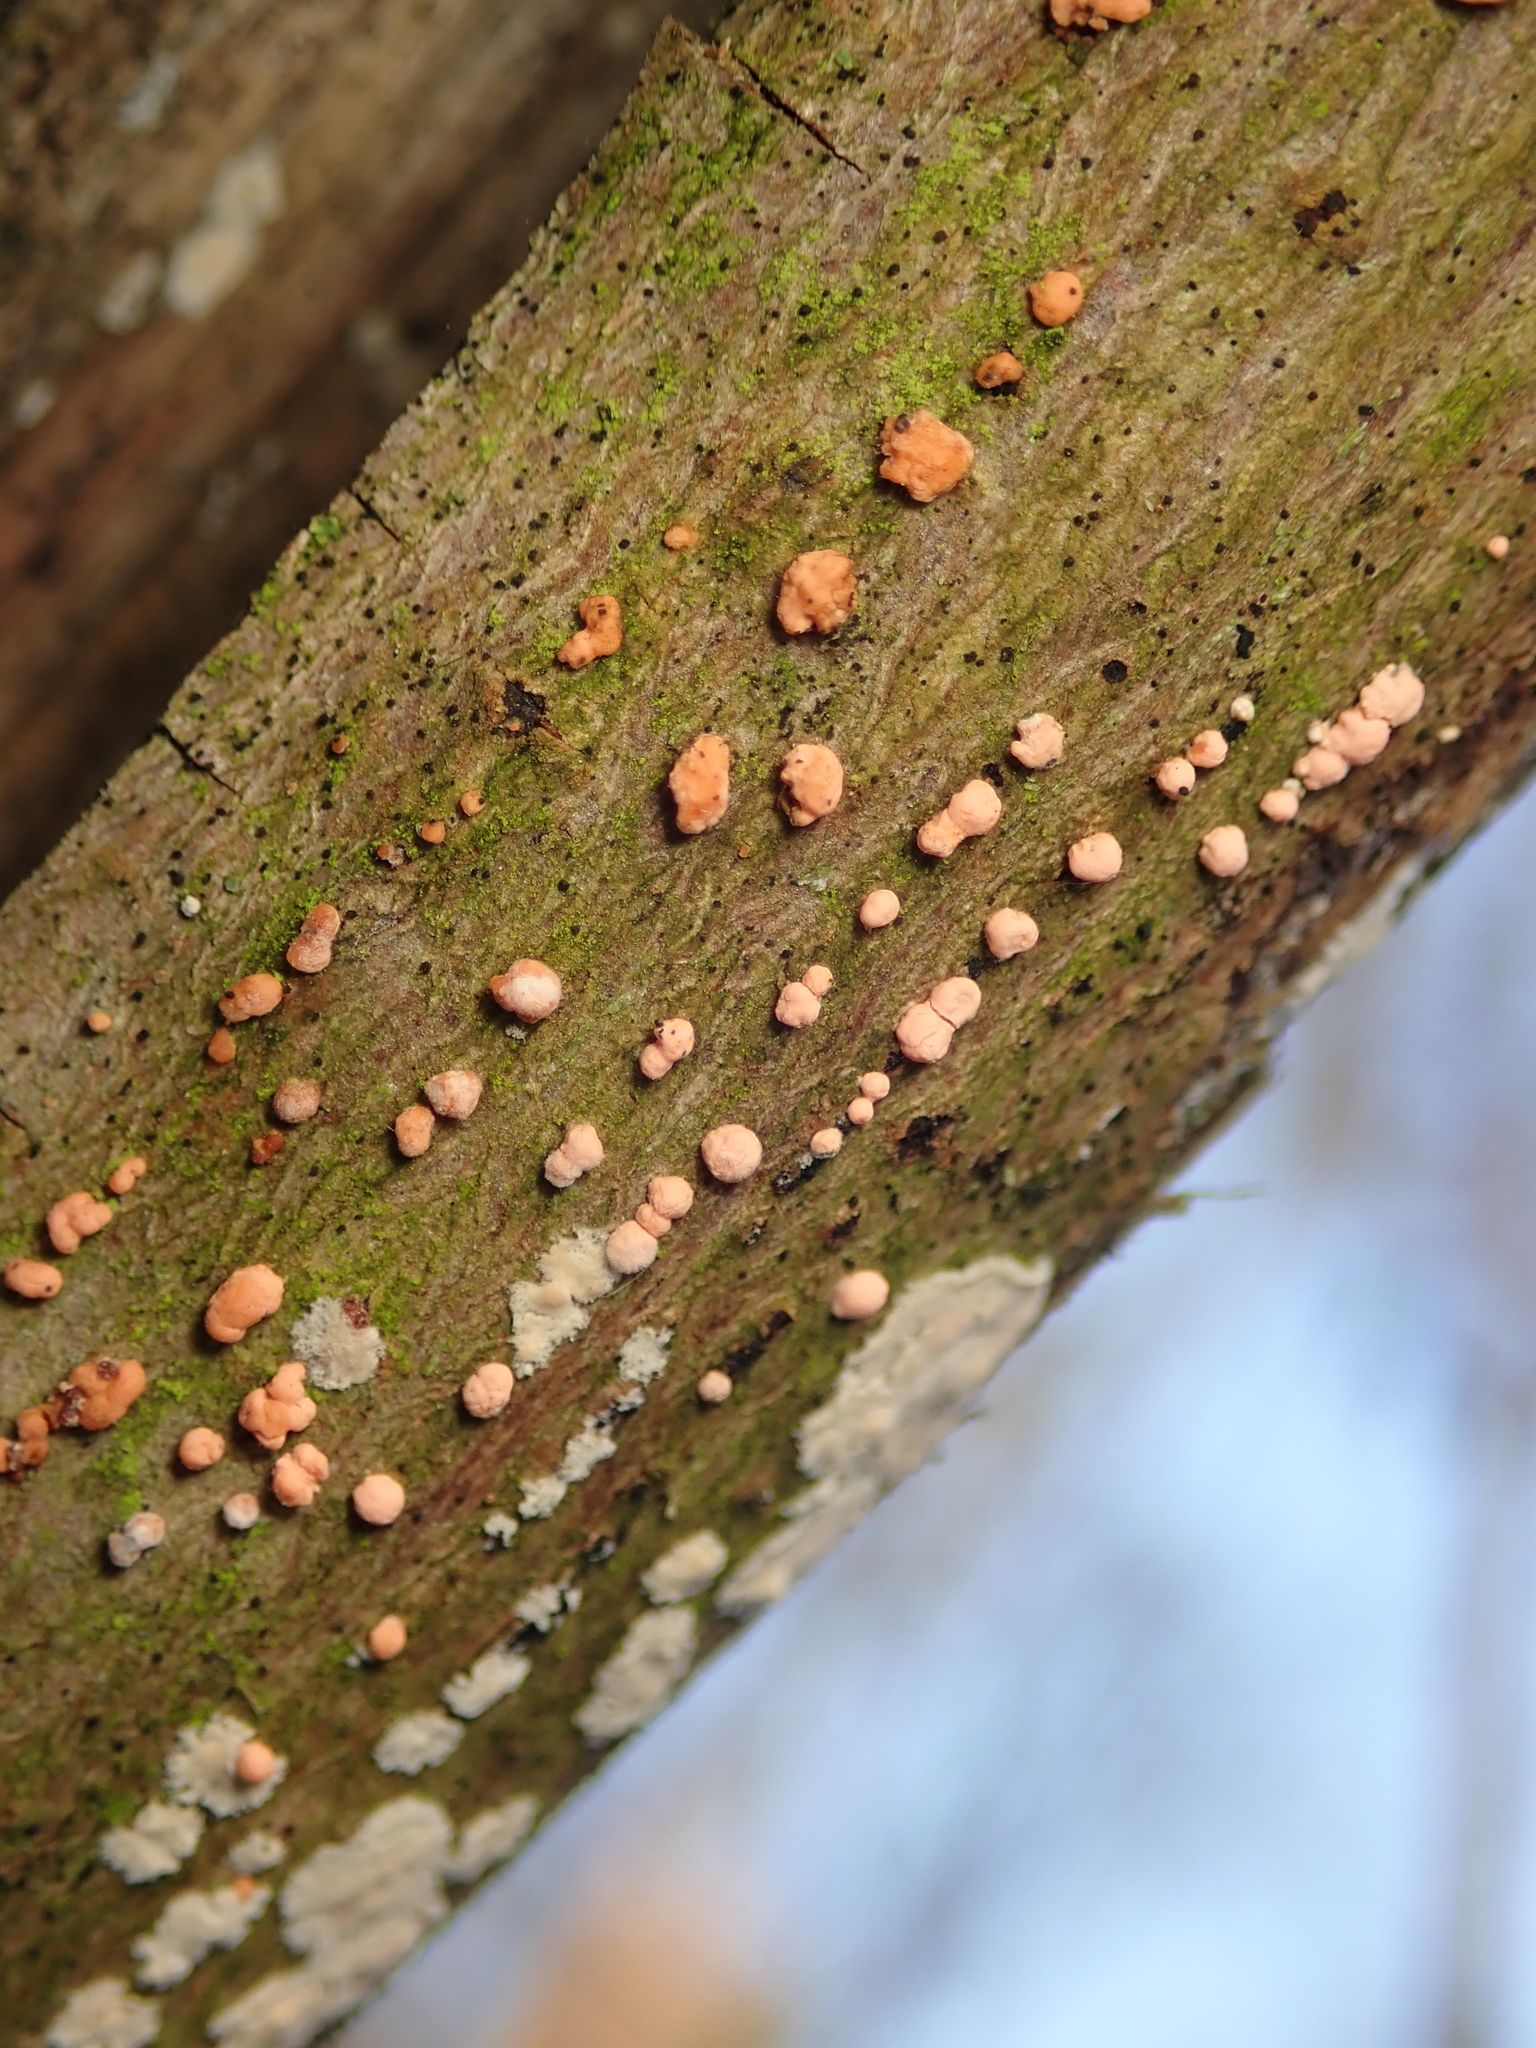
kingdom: Fungi
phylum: Ascomycota
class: Sordariomycetes
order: Hypocreales
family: Nectriaceae
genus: Nectria
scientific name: Nectria cinnabarina
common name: Coral spot
